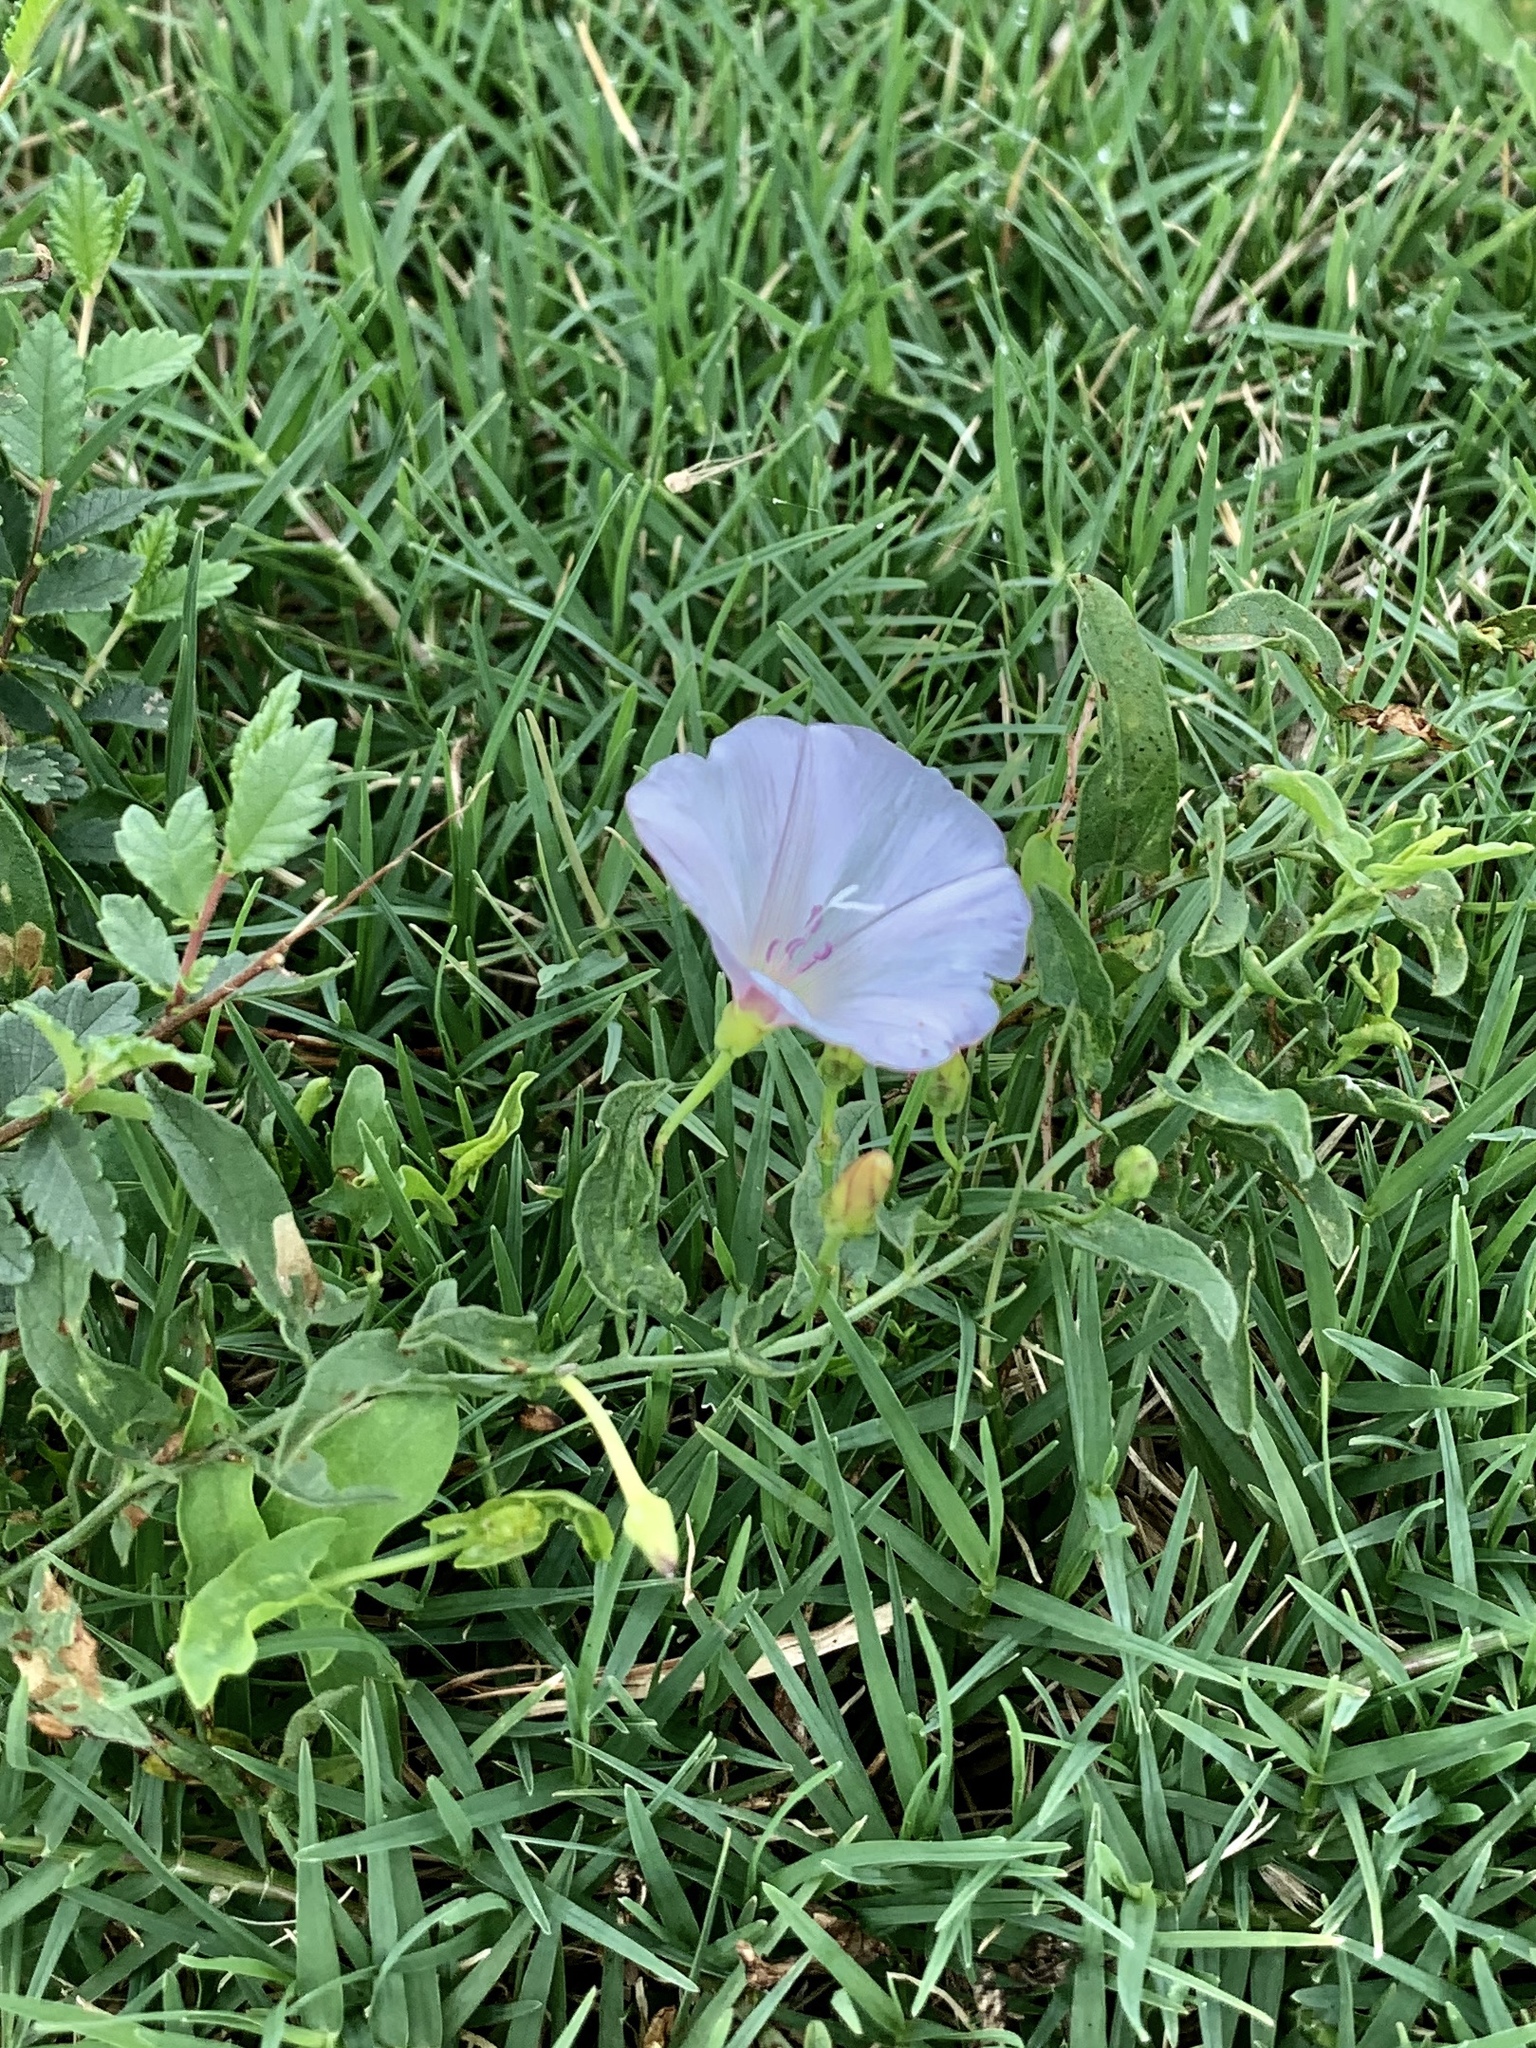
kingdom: Plantae
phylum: Tracheophyta
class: Magnoliopsida
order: Solanales
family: Convolvulaceae
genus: Convolvulus
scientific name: Convolvulus arvensis
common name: Field bindweed
